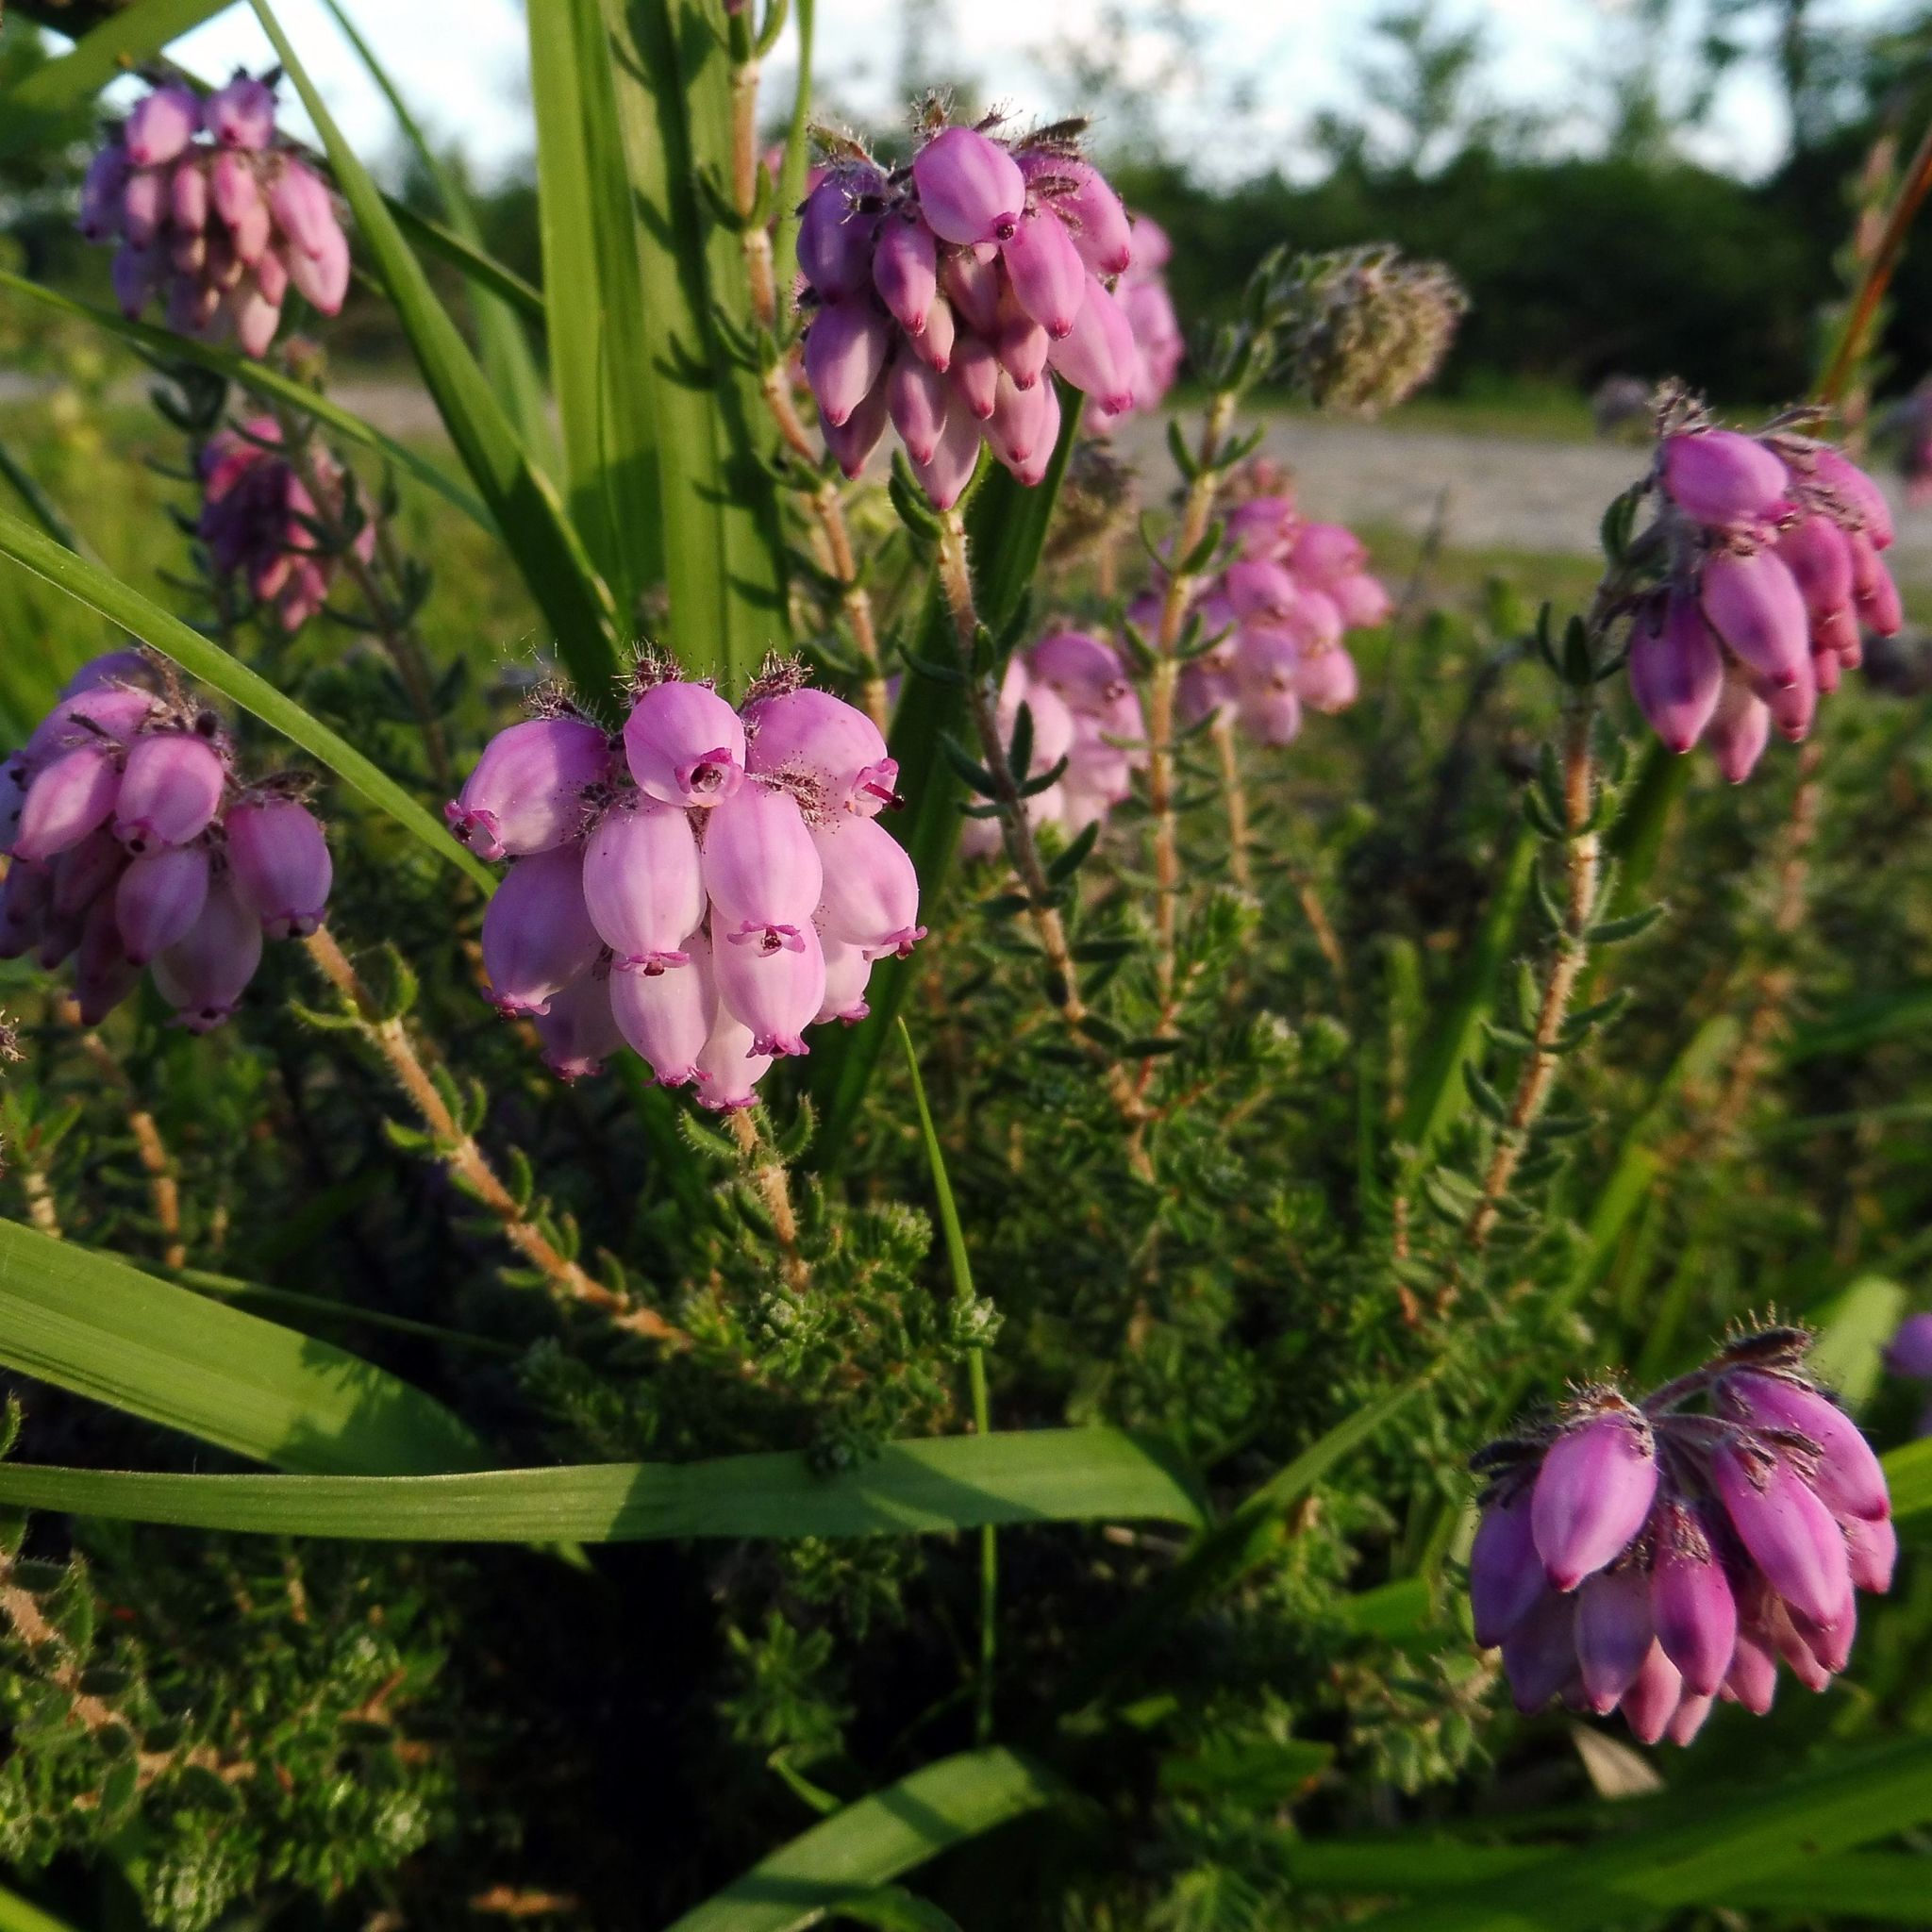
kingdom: Plantae
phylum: Tracheophyta
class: Magnoliopsida
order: Ericales
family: Ericaceae
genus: Erica
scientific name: Erica tetralix
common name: Cross-leaved heath
